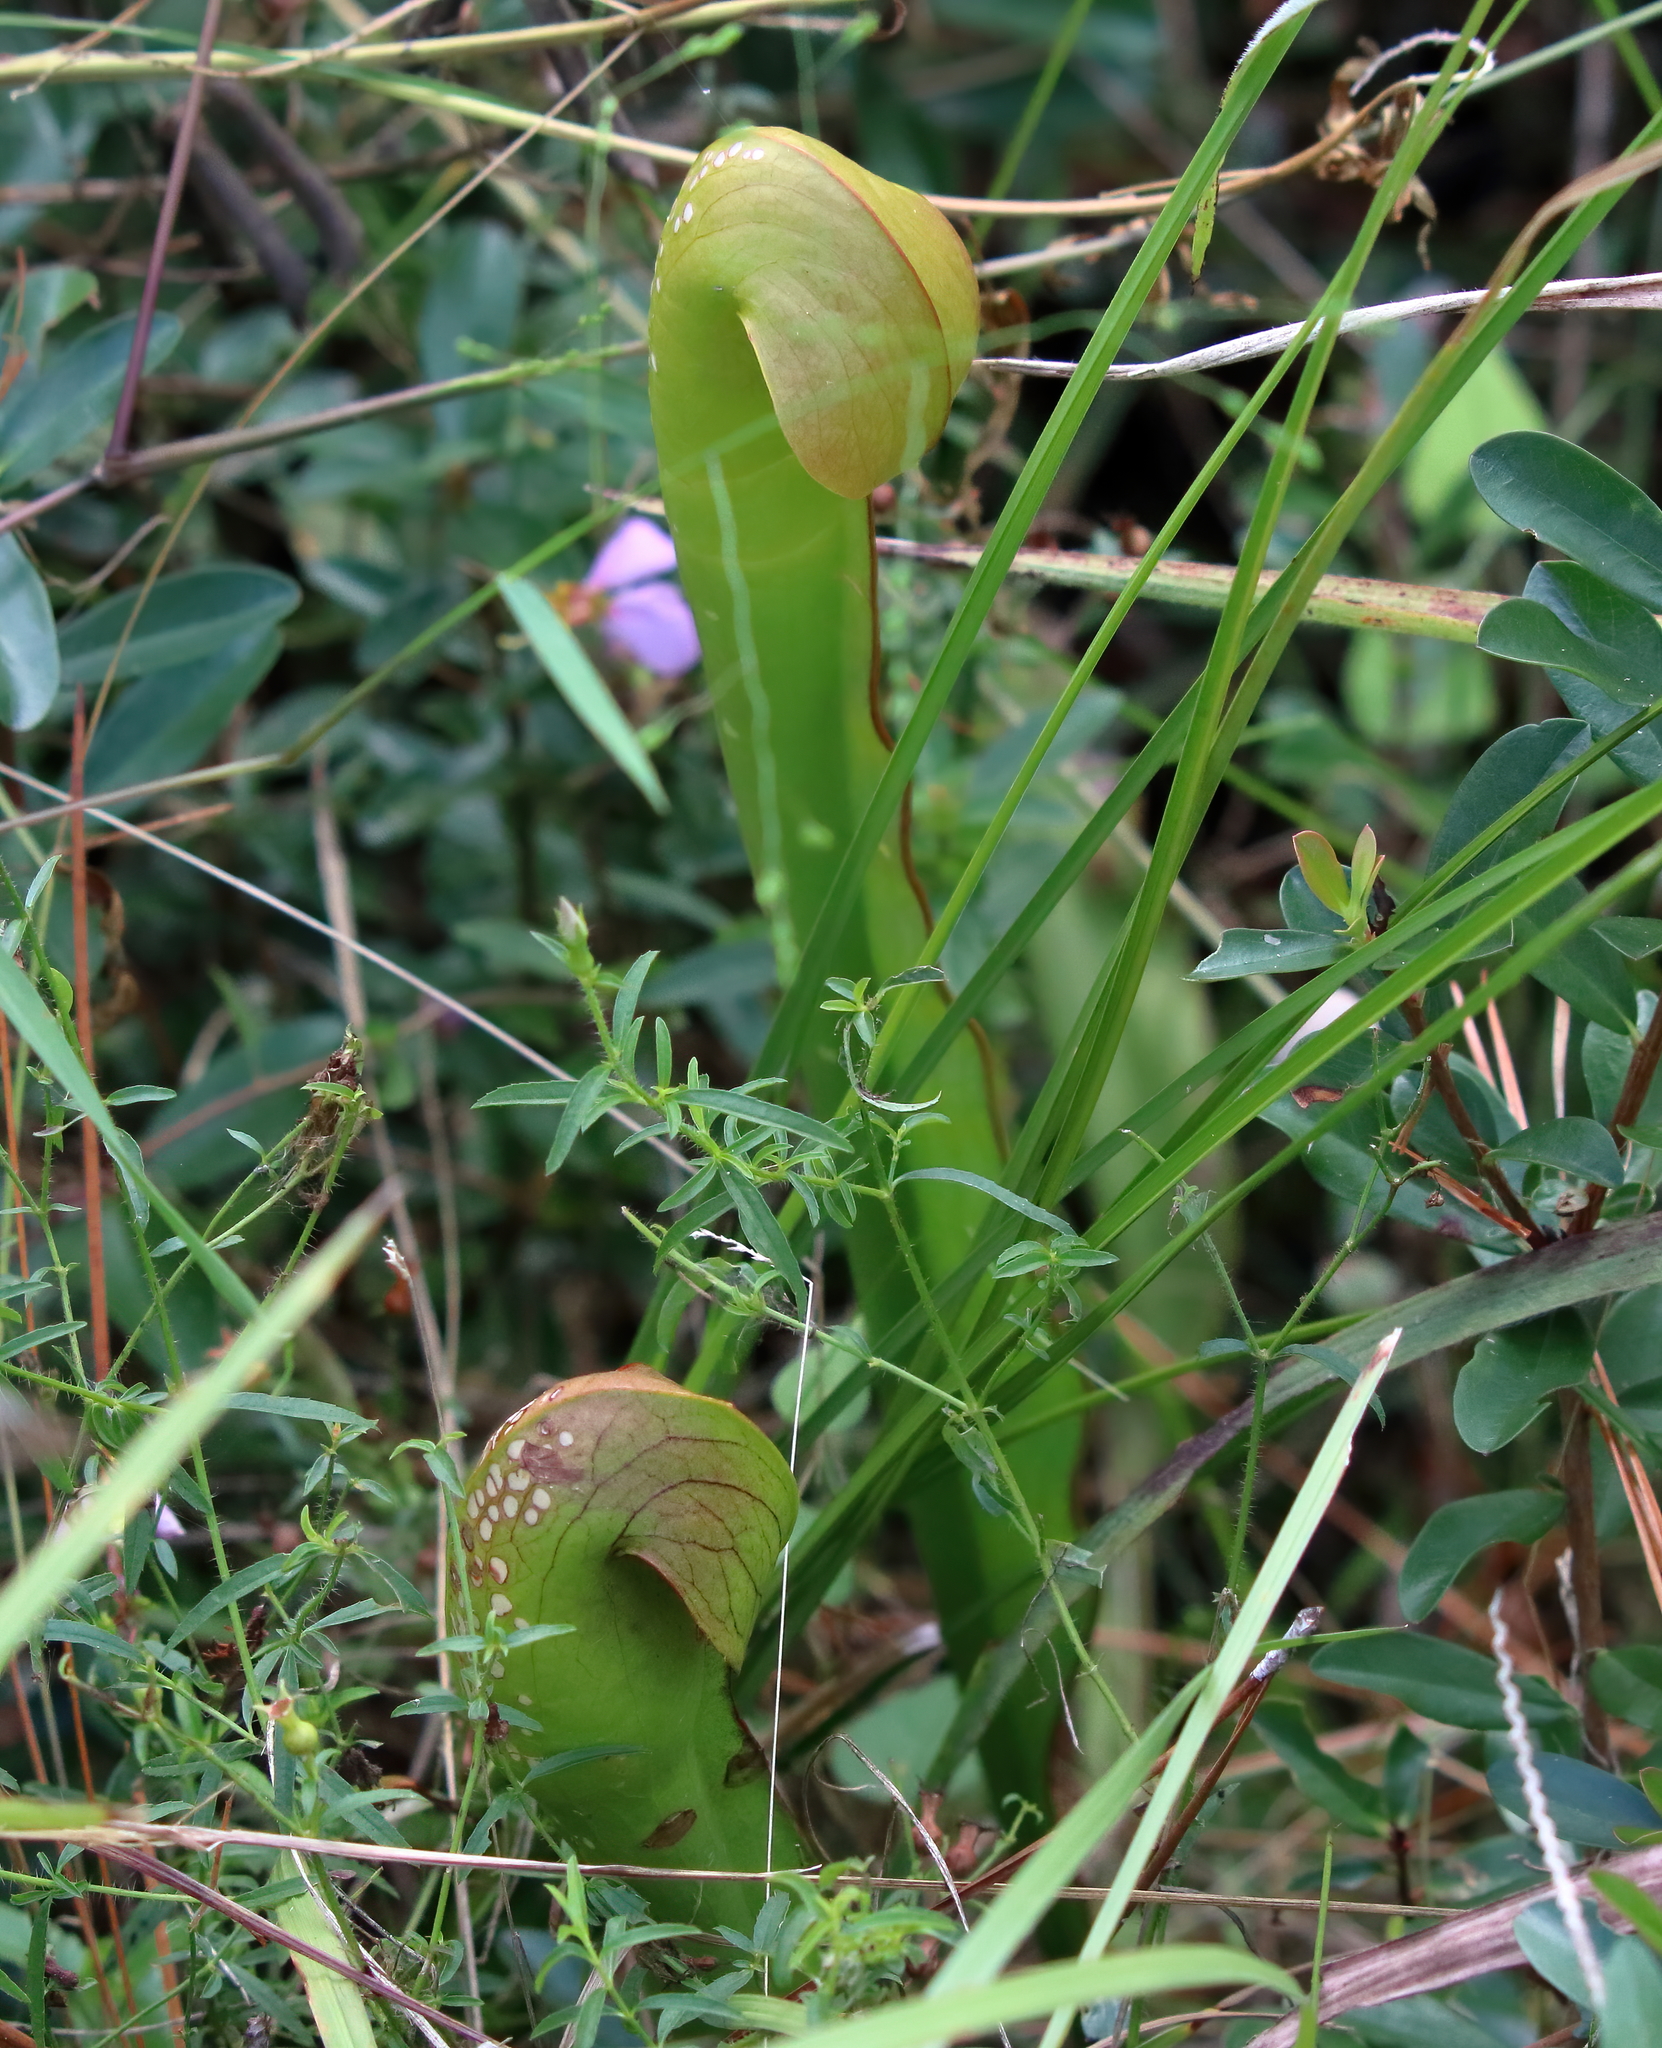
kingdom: Plantae
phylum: Tracheophyta
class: Magnoliopsida
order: Ericales
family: Sarraceniaceae
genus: Sarracenia
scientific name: Sarracenia minor
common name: Rainhat-trumpet
